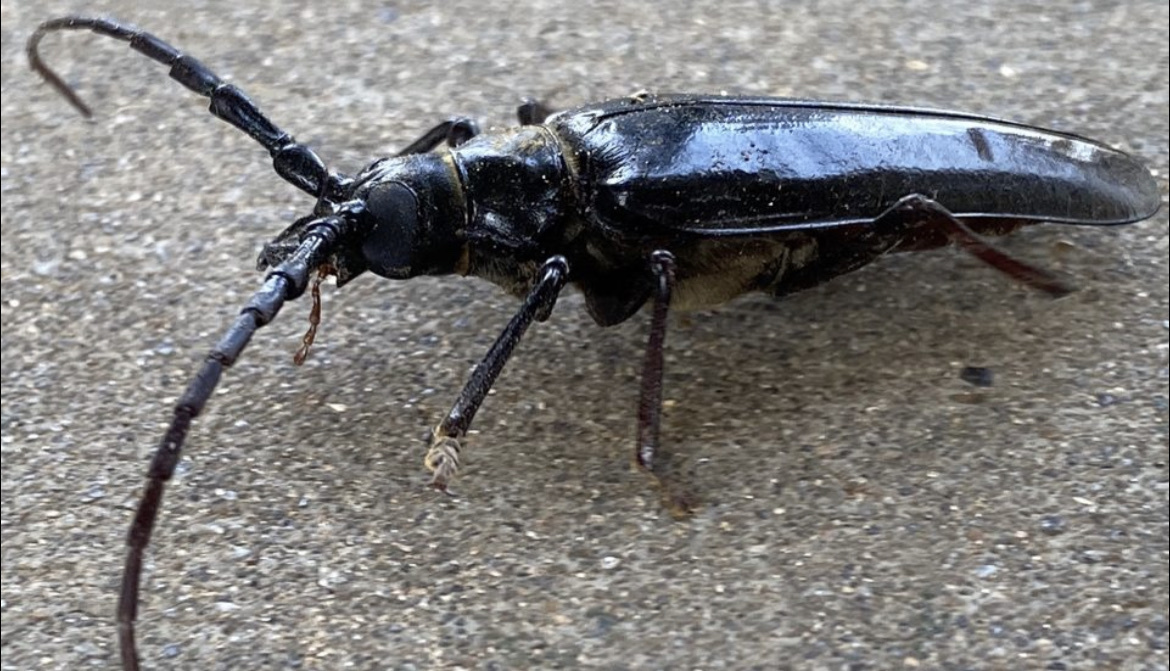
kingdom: Animalia
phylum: Arthropoda
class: Insecta
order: Coleoptera
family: Cerambycidae
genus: Derobrachus
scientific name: Derobrachus hovorei
